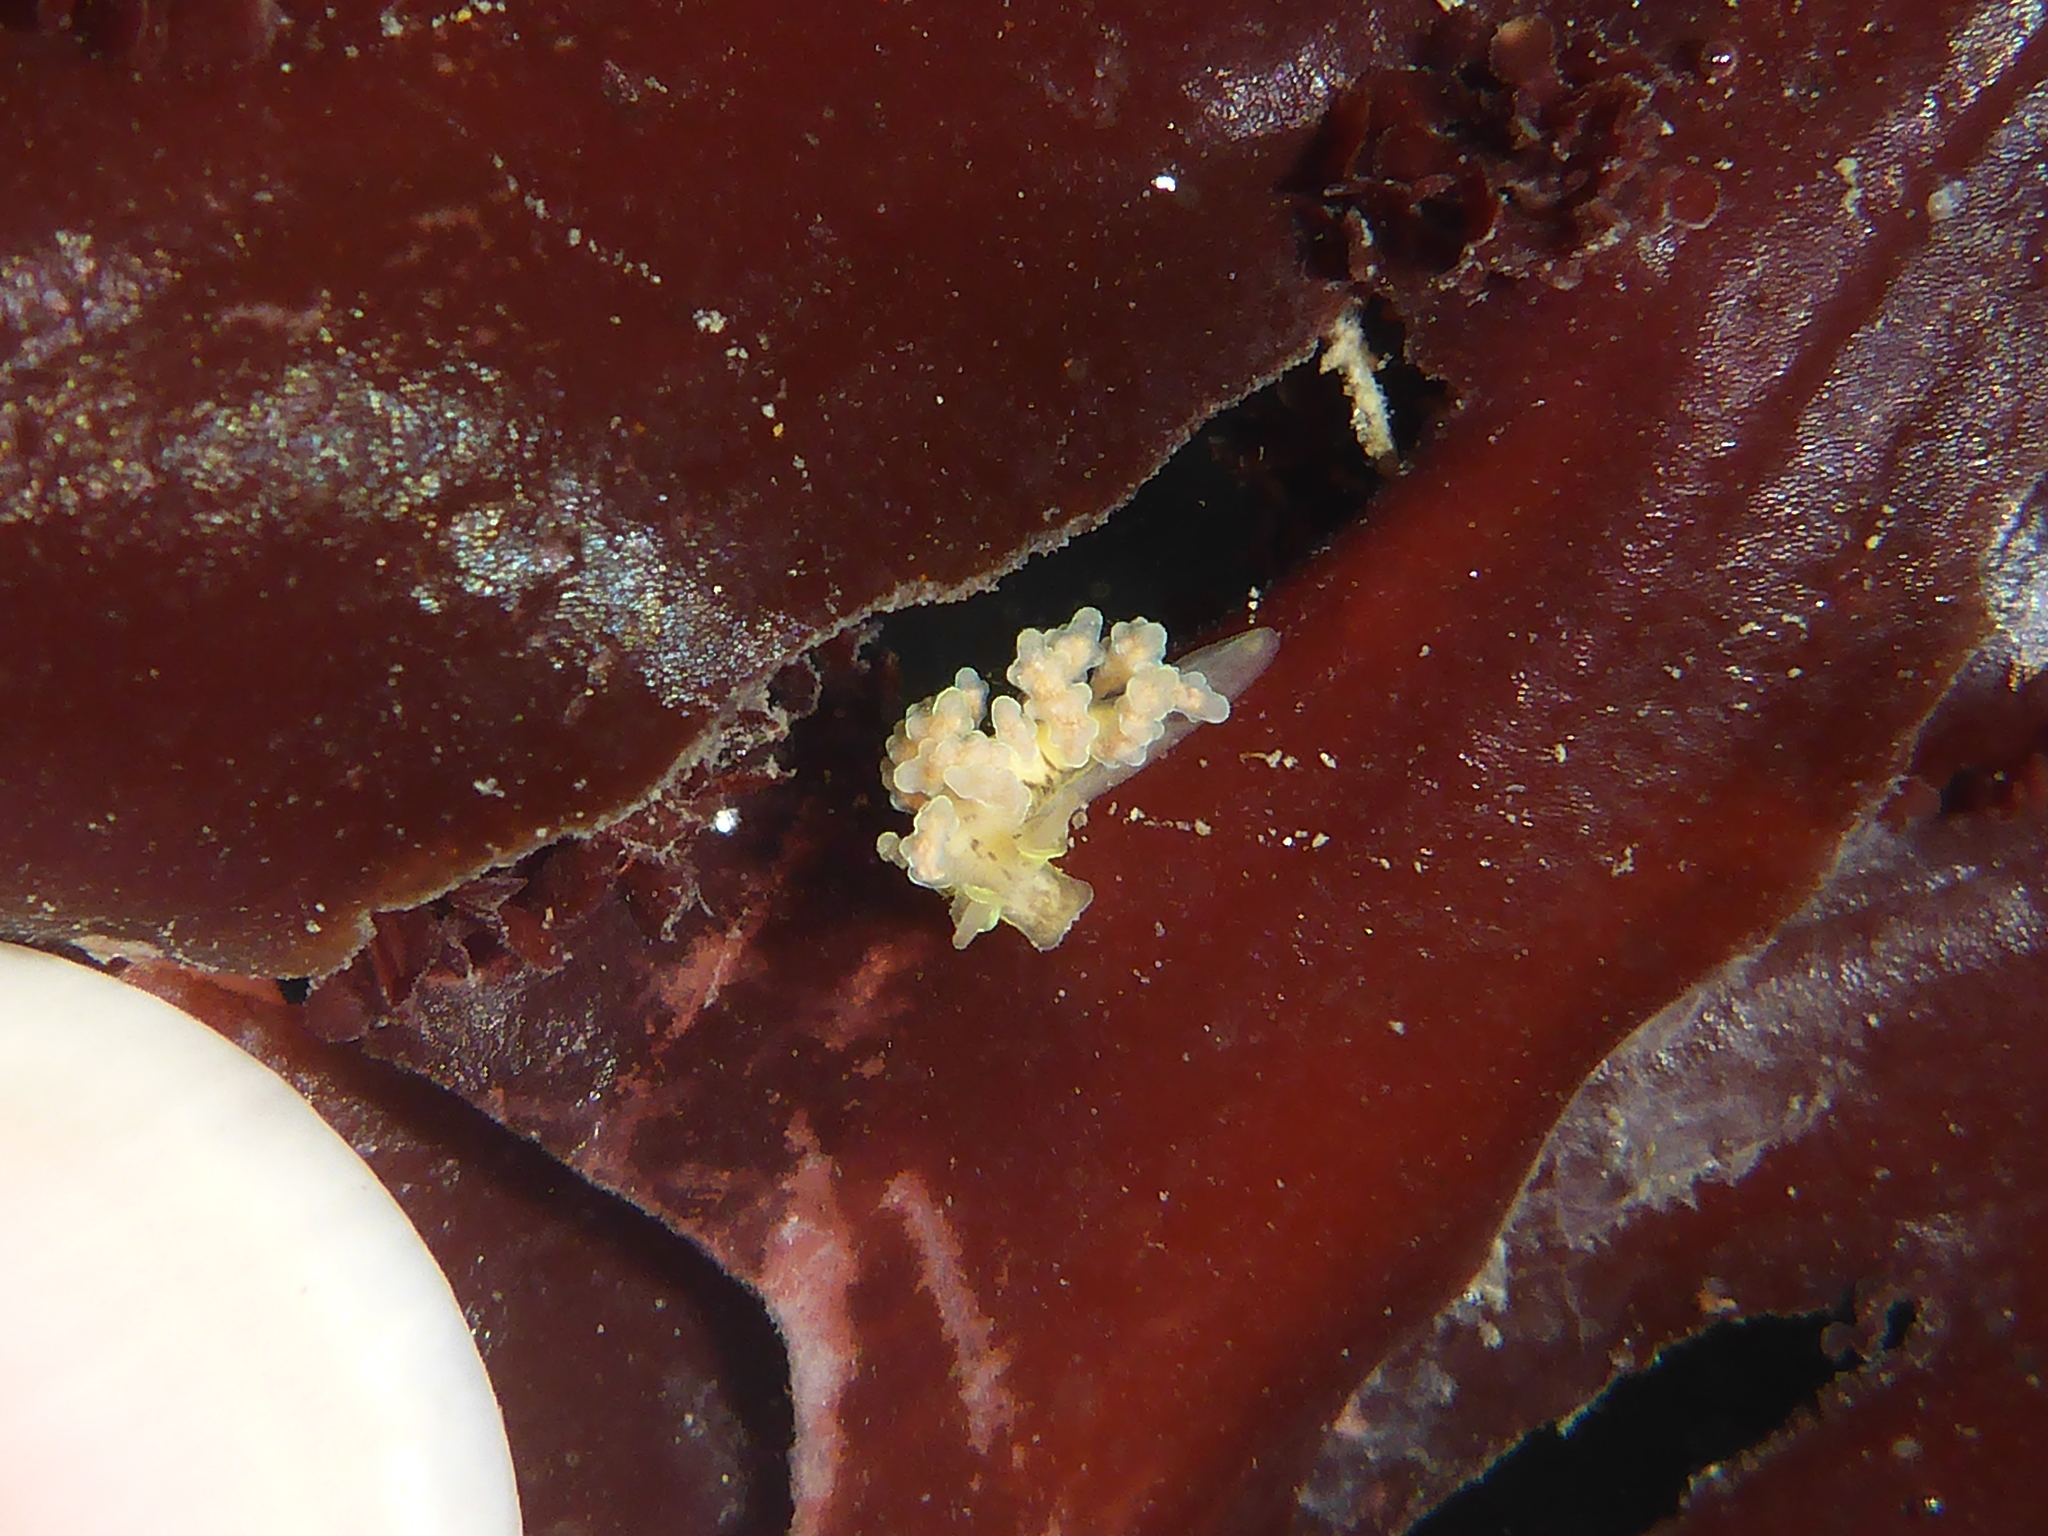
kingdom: Animalia
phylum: Mollusca
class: Gastropoda
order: Nudibranchia
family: Dotidae
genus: Doto
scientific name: Doto columbiana
